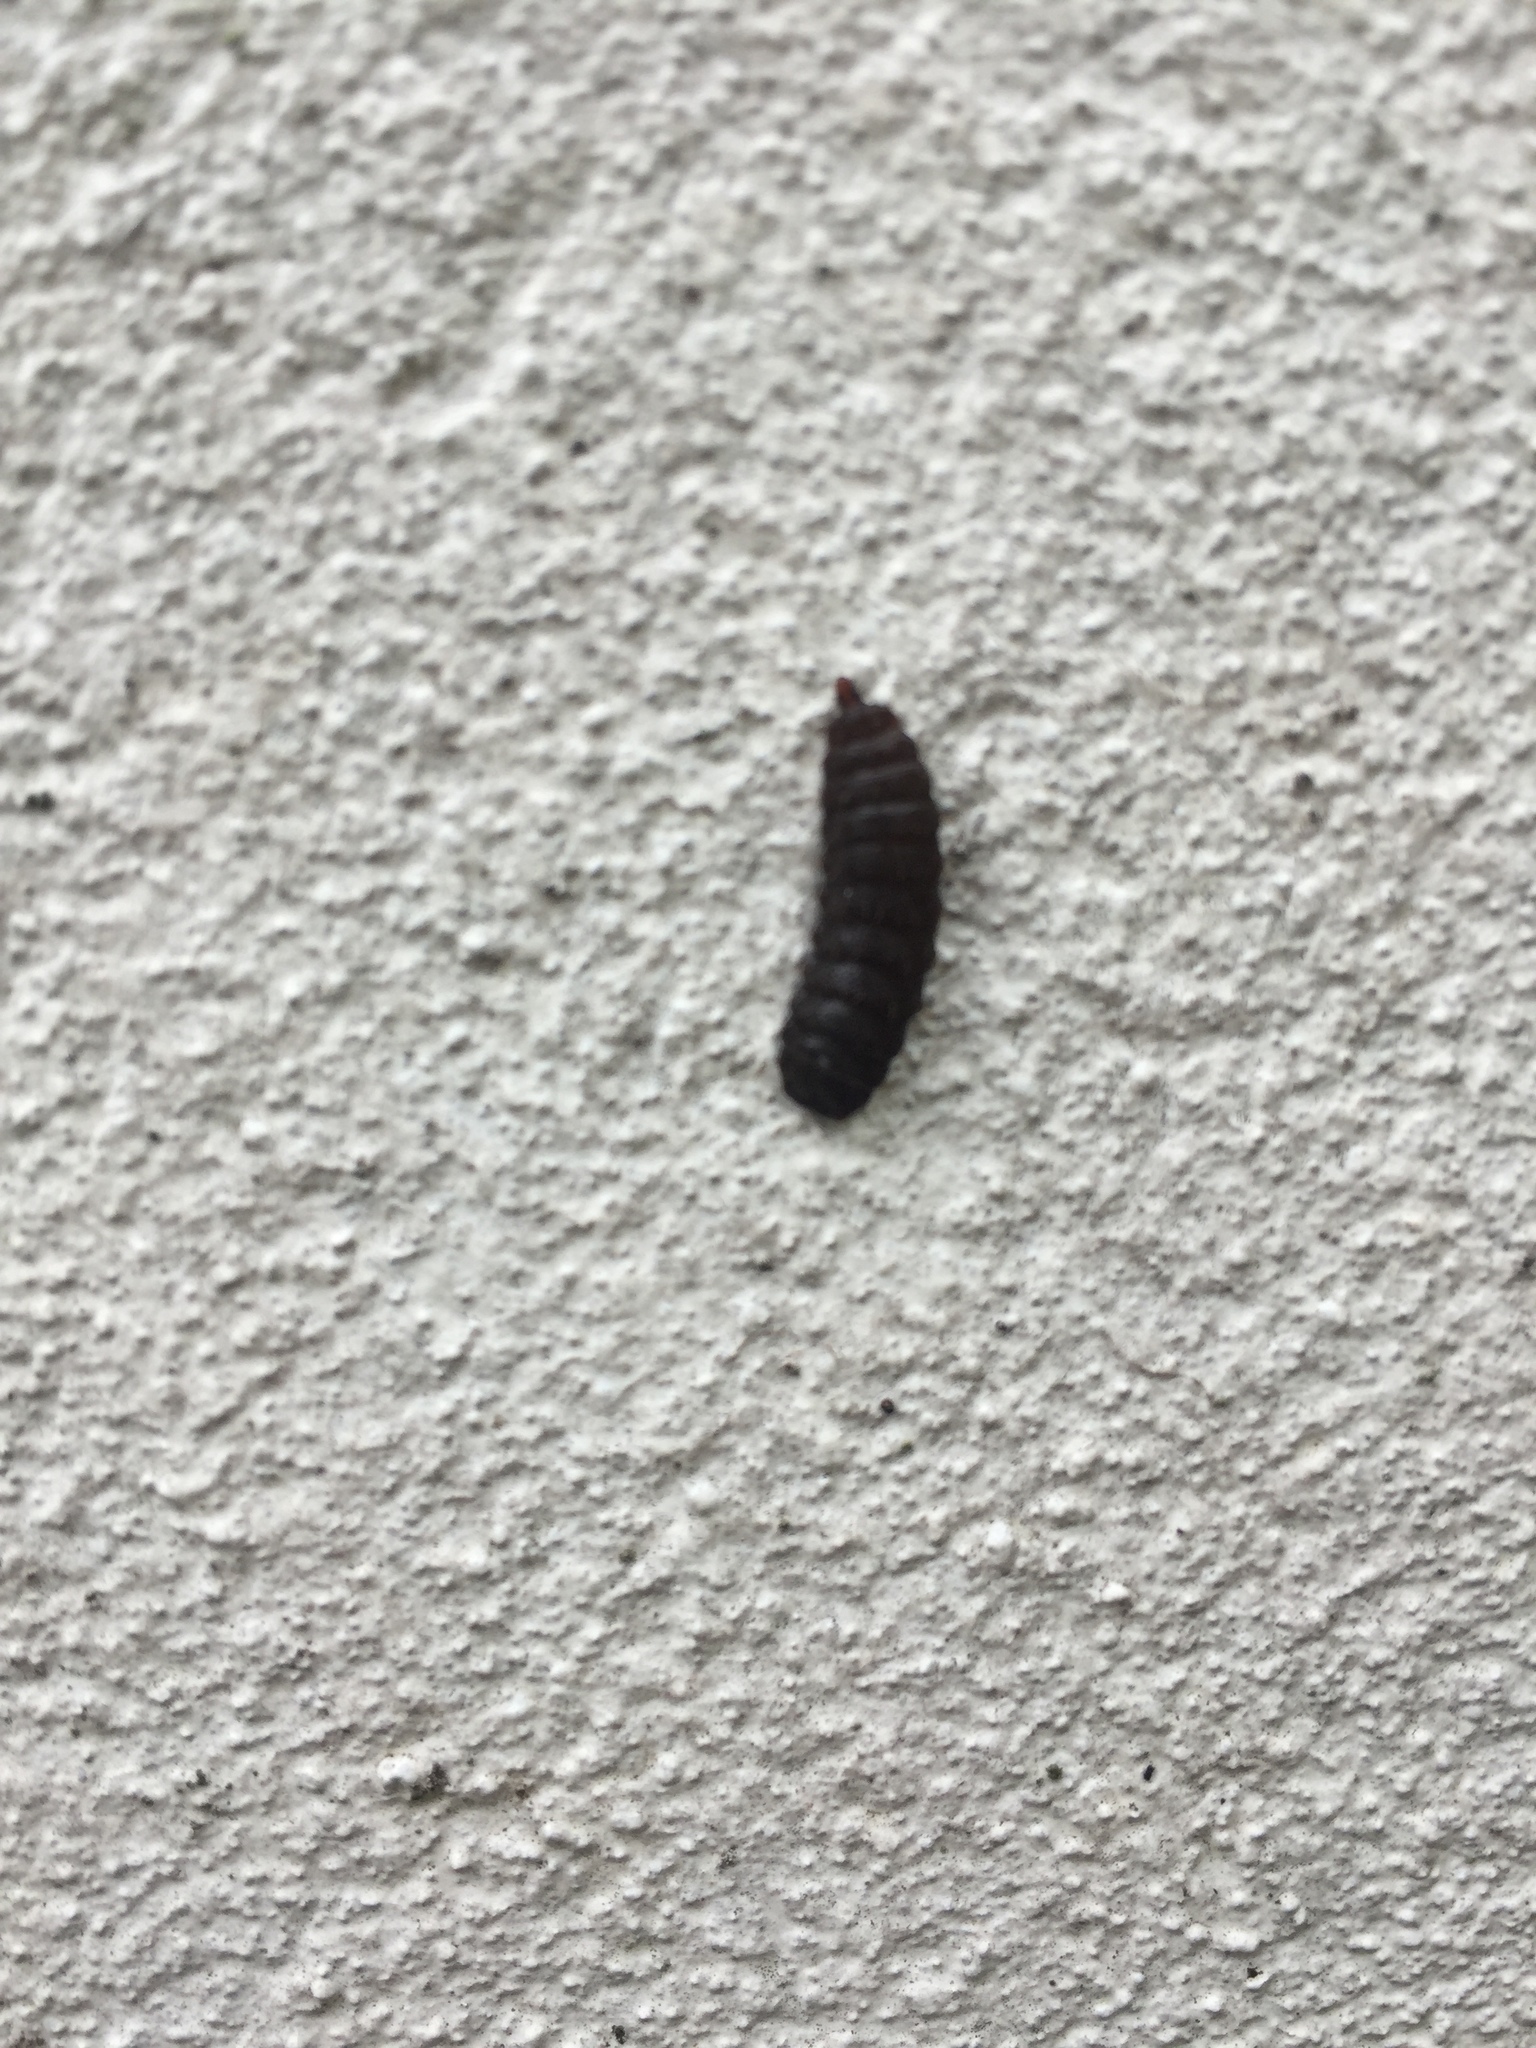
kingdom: Animalia
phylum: Arthropoda
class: Insecta
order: Diptera
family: Stratiomyidae
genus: Hermetia
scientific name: Hermetia illucens
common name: Black soldier fly
